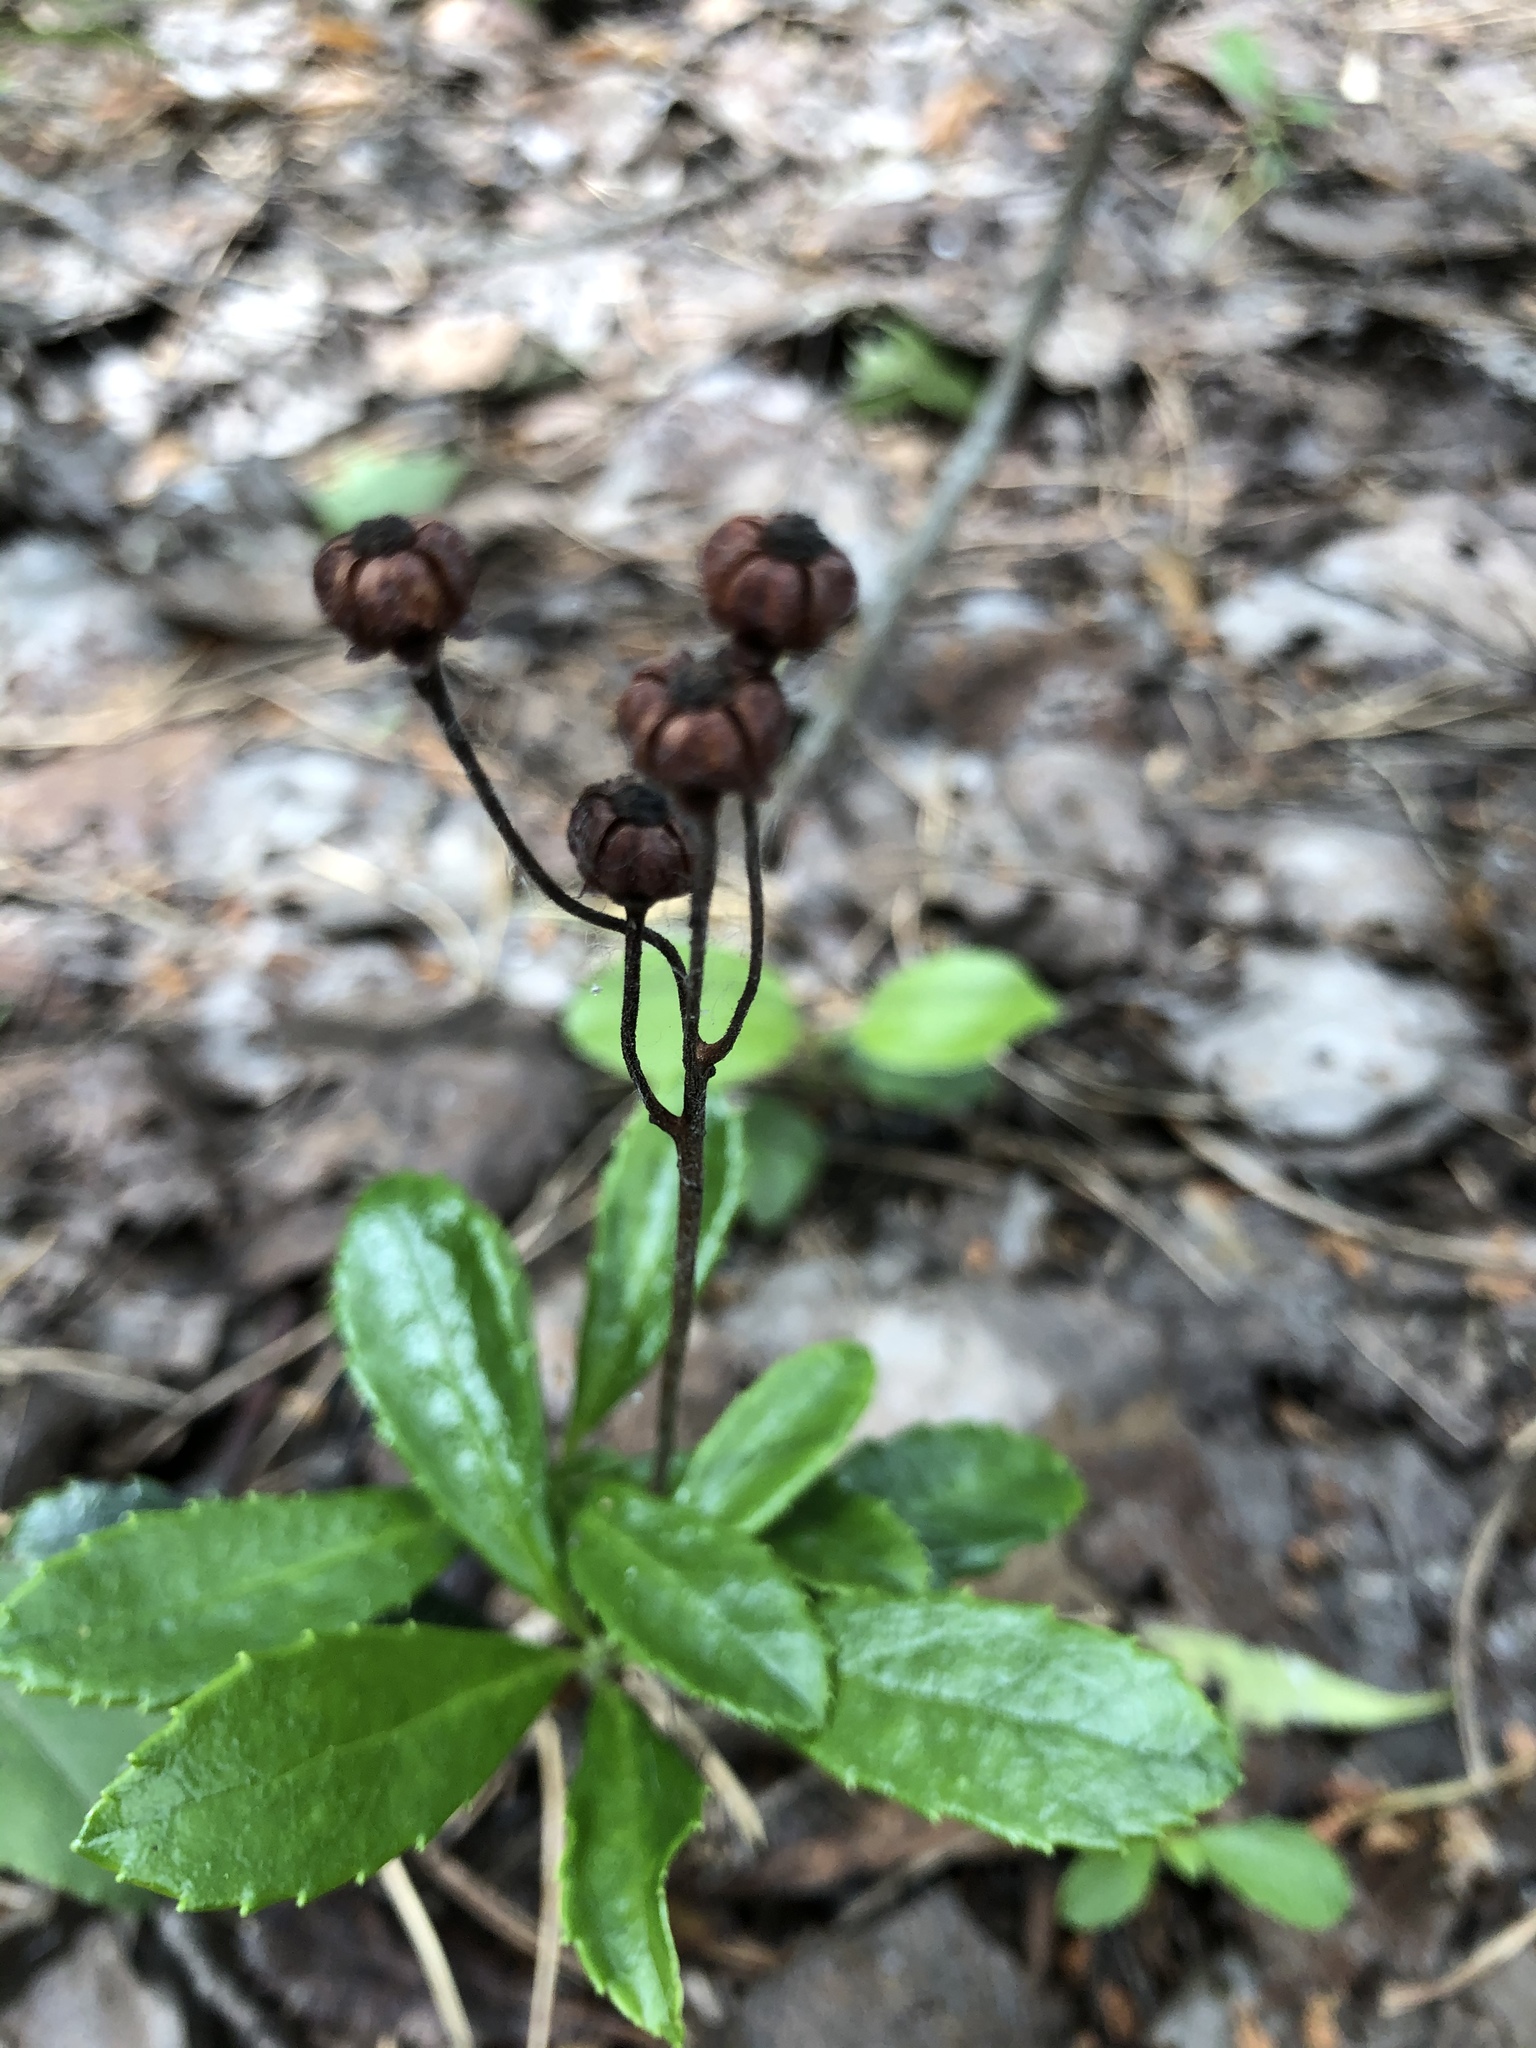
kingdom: Plantae
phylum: Tracheophyta
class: Magnoliopsida
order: Ericales
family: Ericaceae
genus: Chimaphila
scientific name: Chimaphila umbellata
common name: Pipsissewa
